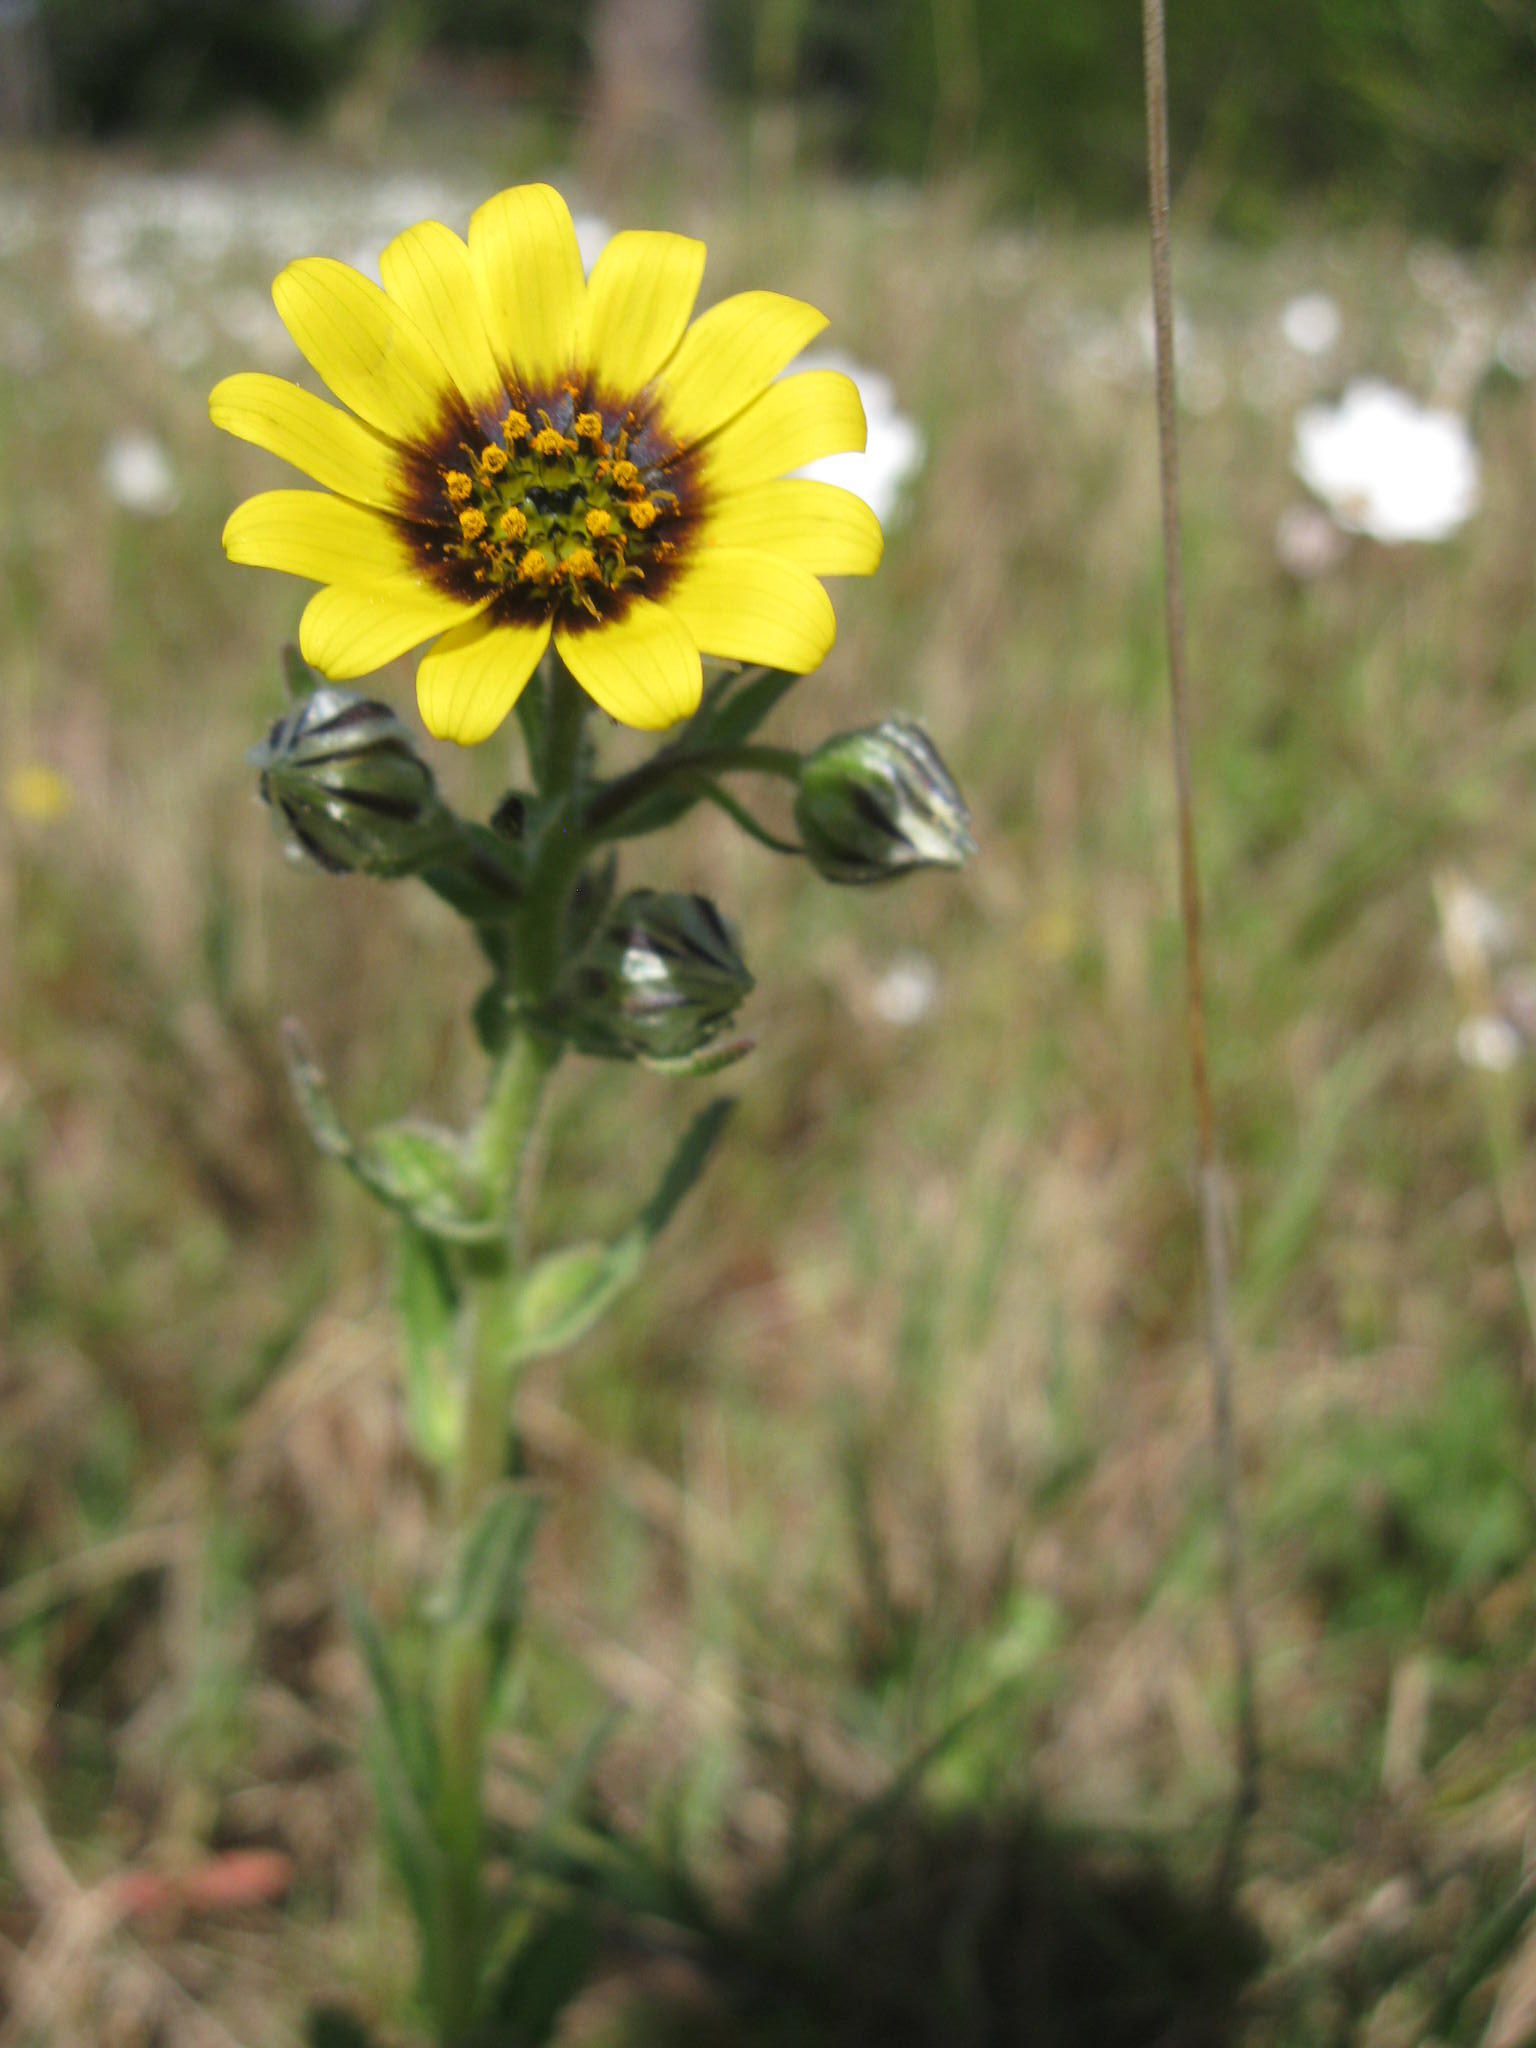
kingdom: Plantae
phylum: Tracheophyta
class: Magnoliopsida
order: Asterales
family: Asteraceae
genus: Osteospermum
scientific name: Osteospermum monstrosum
